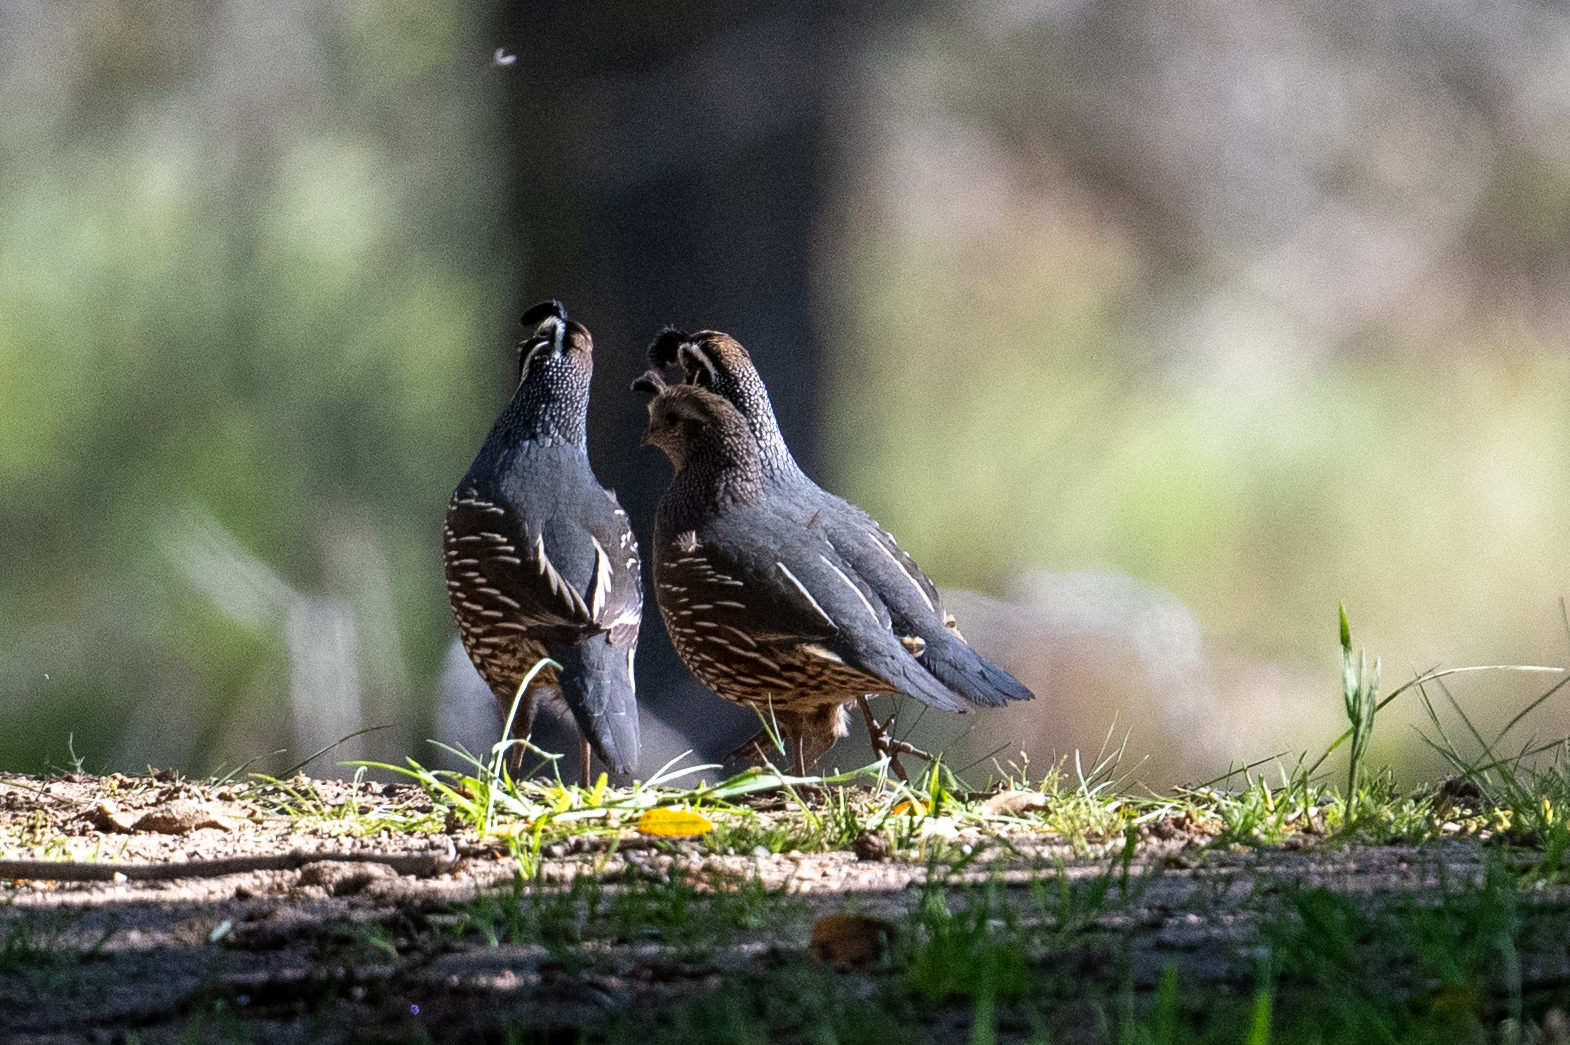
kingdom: Animalia
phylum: Chordata
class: Aves
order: Galliformes
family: Odontophoridae
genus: Callipepla
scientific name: Callipepla californica
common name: California quail
